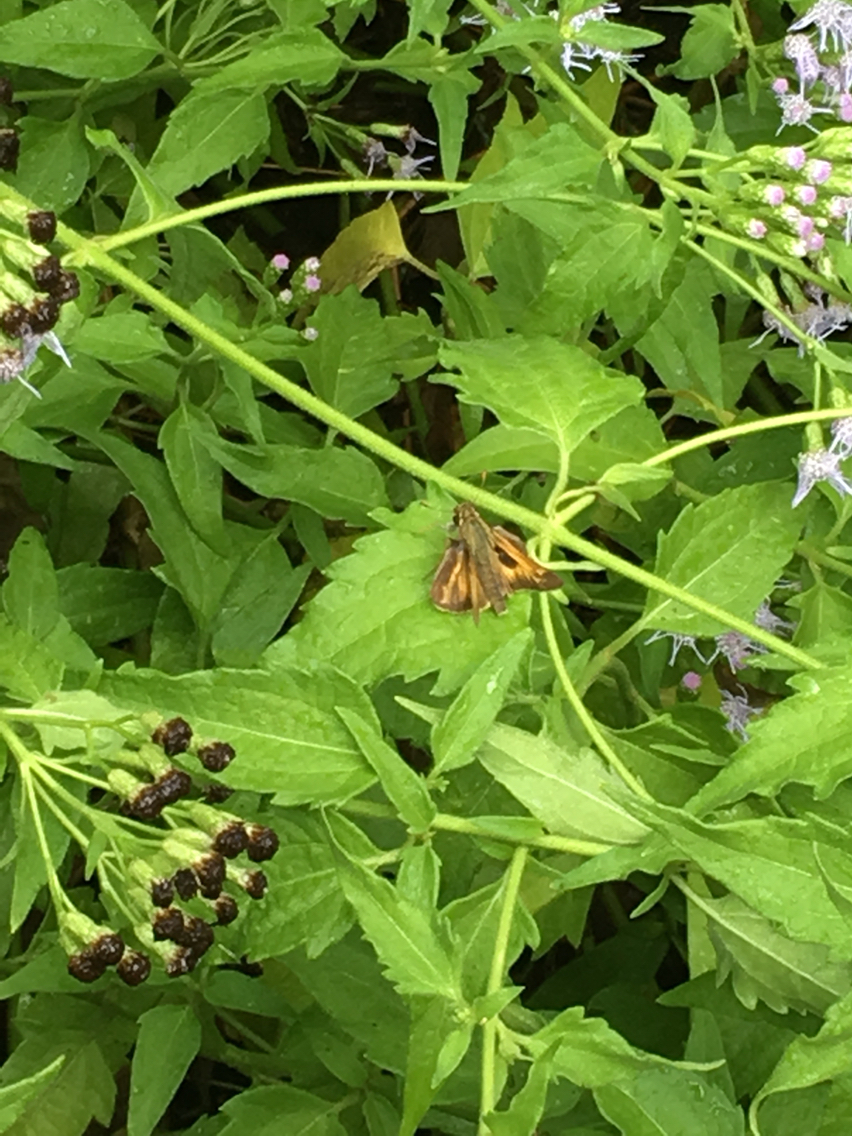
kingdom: Animalia
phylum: Arthropoda
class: Insecta
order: Lepidoptera
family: Hesperiidae
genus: Atalopedes
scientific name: Atalopedes
